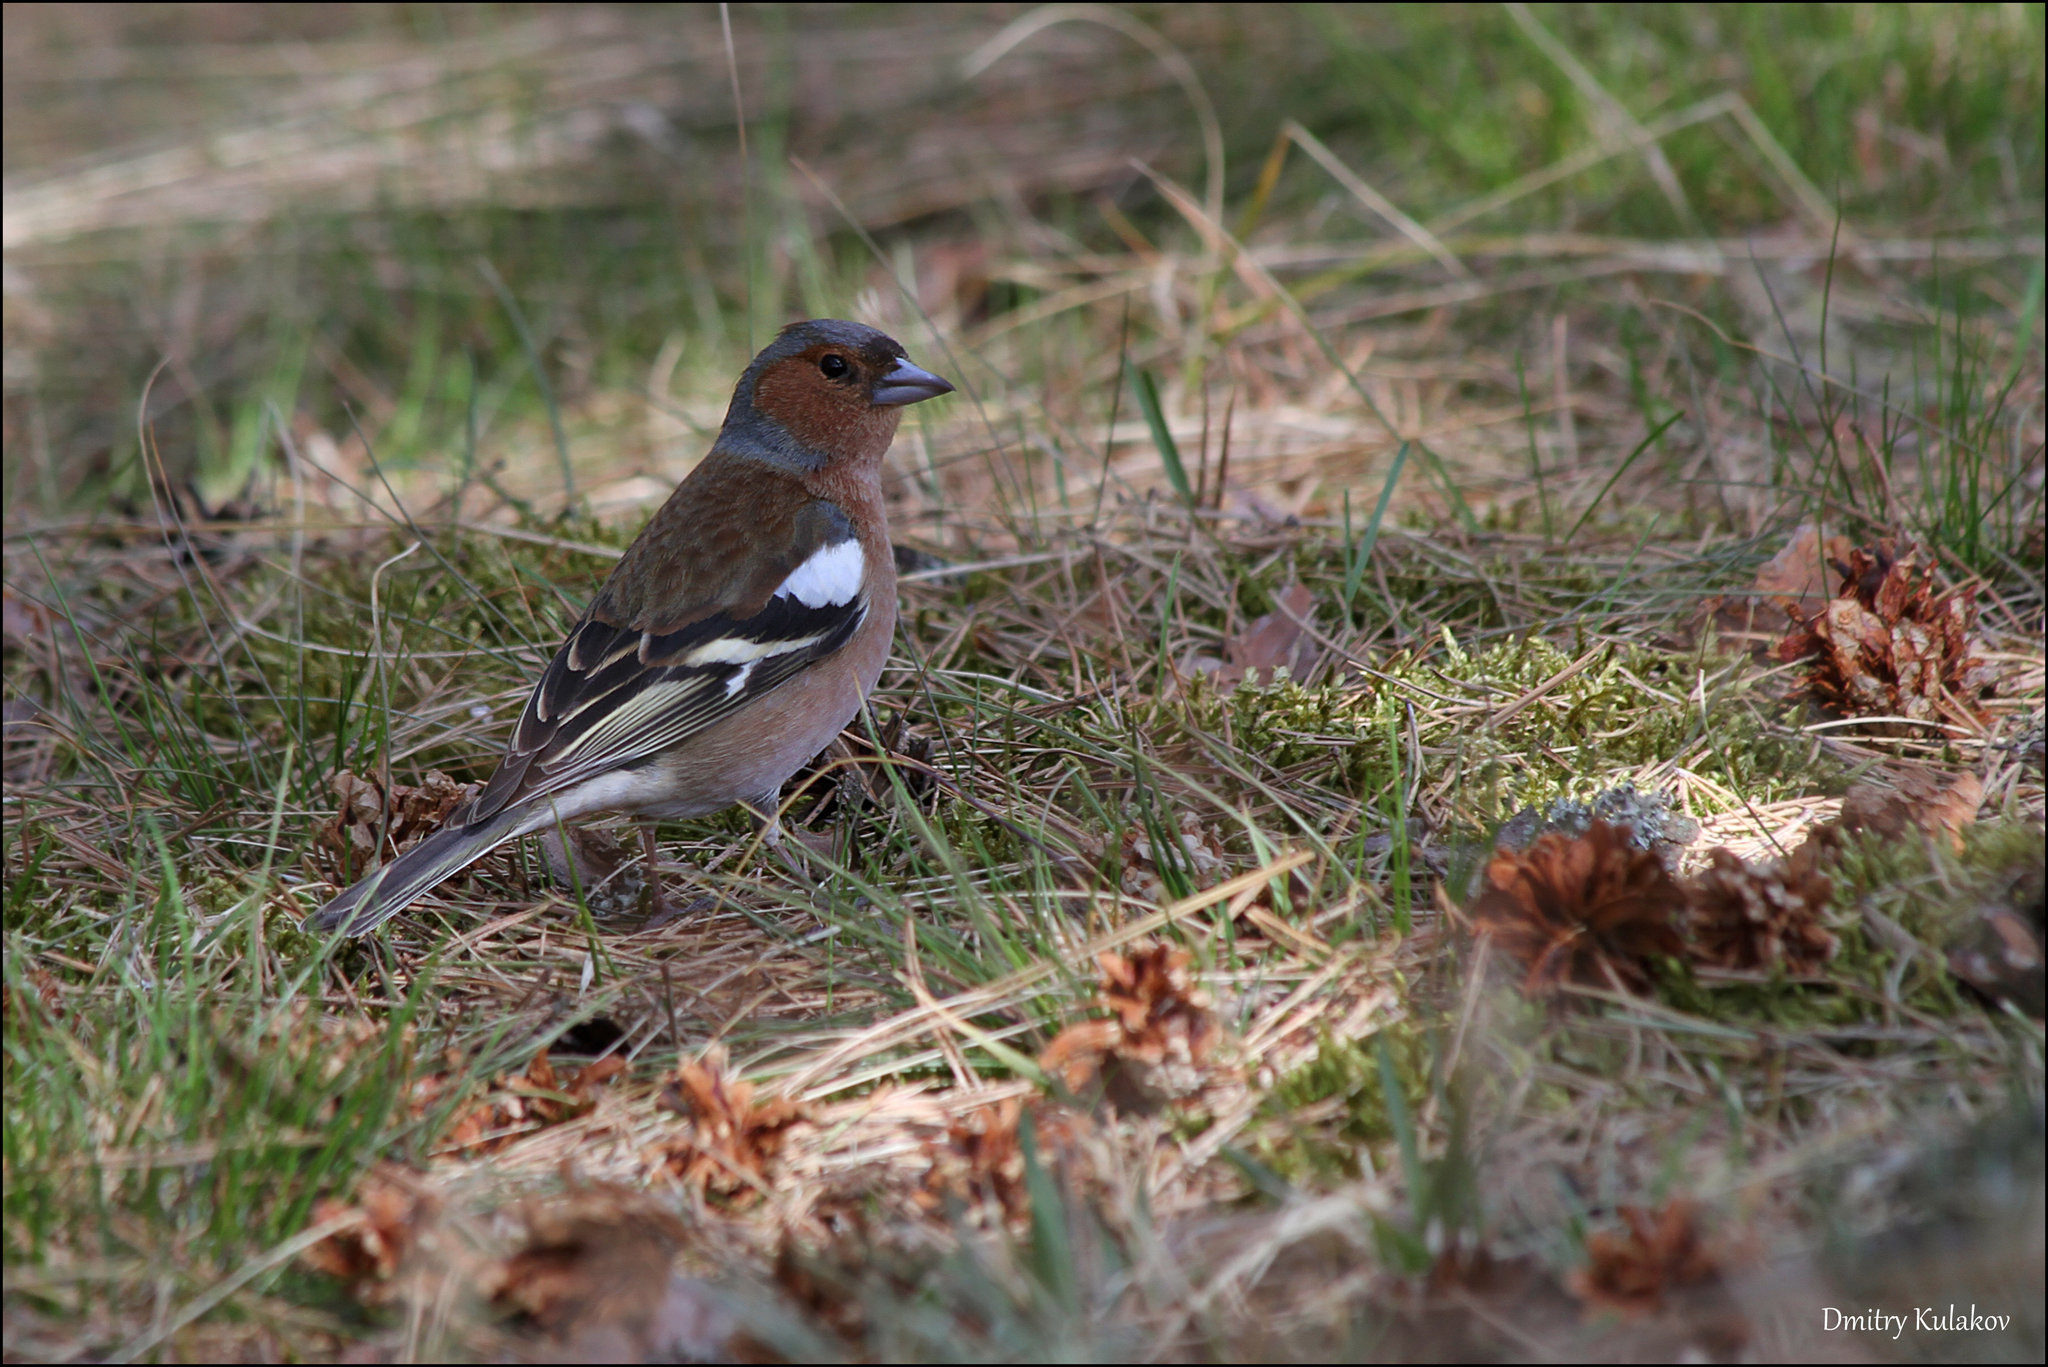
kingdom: Animalia
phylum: Chordata
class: Aves
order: Passeriformes
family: Fringillidae
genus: Fringilla
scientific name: Fringilla coelebs
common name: Common chaffinch
